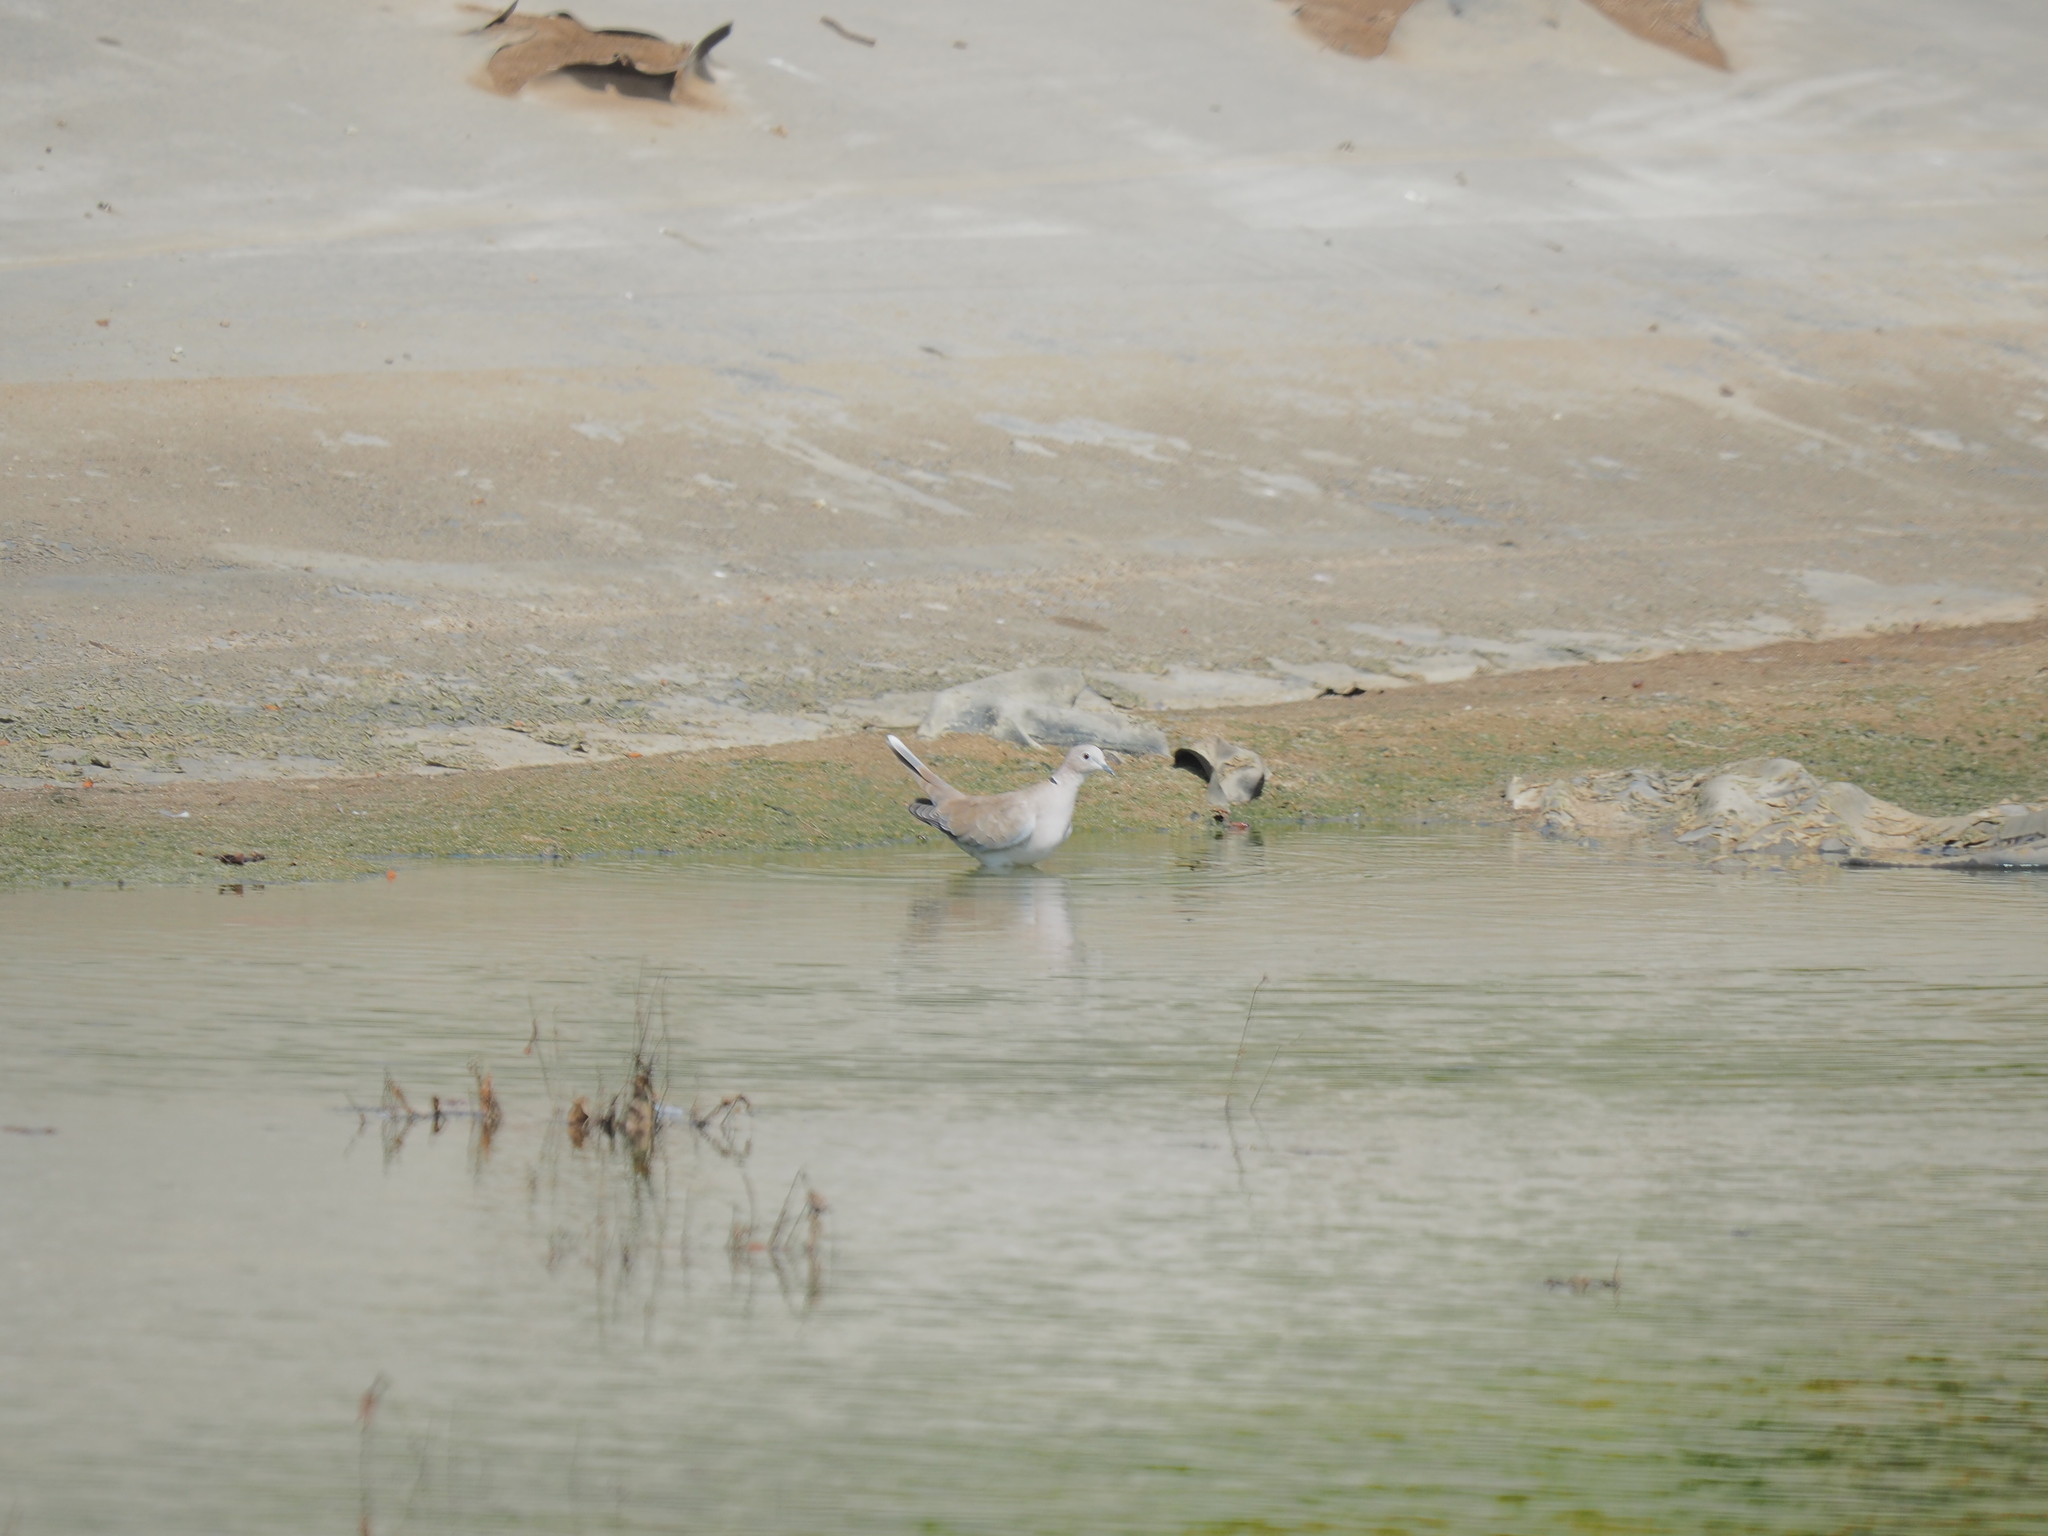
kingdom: Animalia
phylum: Chordata
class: Aves
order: Columbiformes
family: Columbidae
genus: Streptopelia
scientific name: Streptopelia decaocto
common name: Eurasian collared dove
